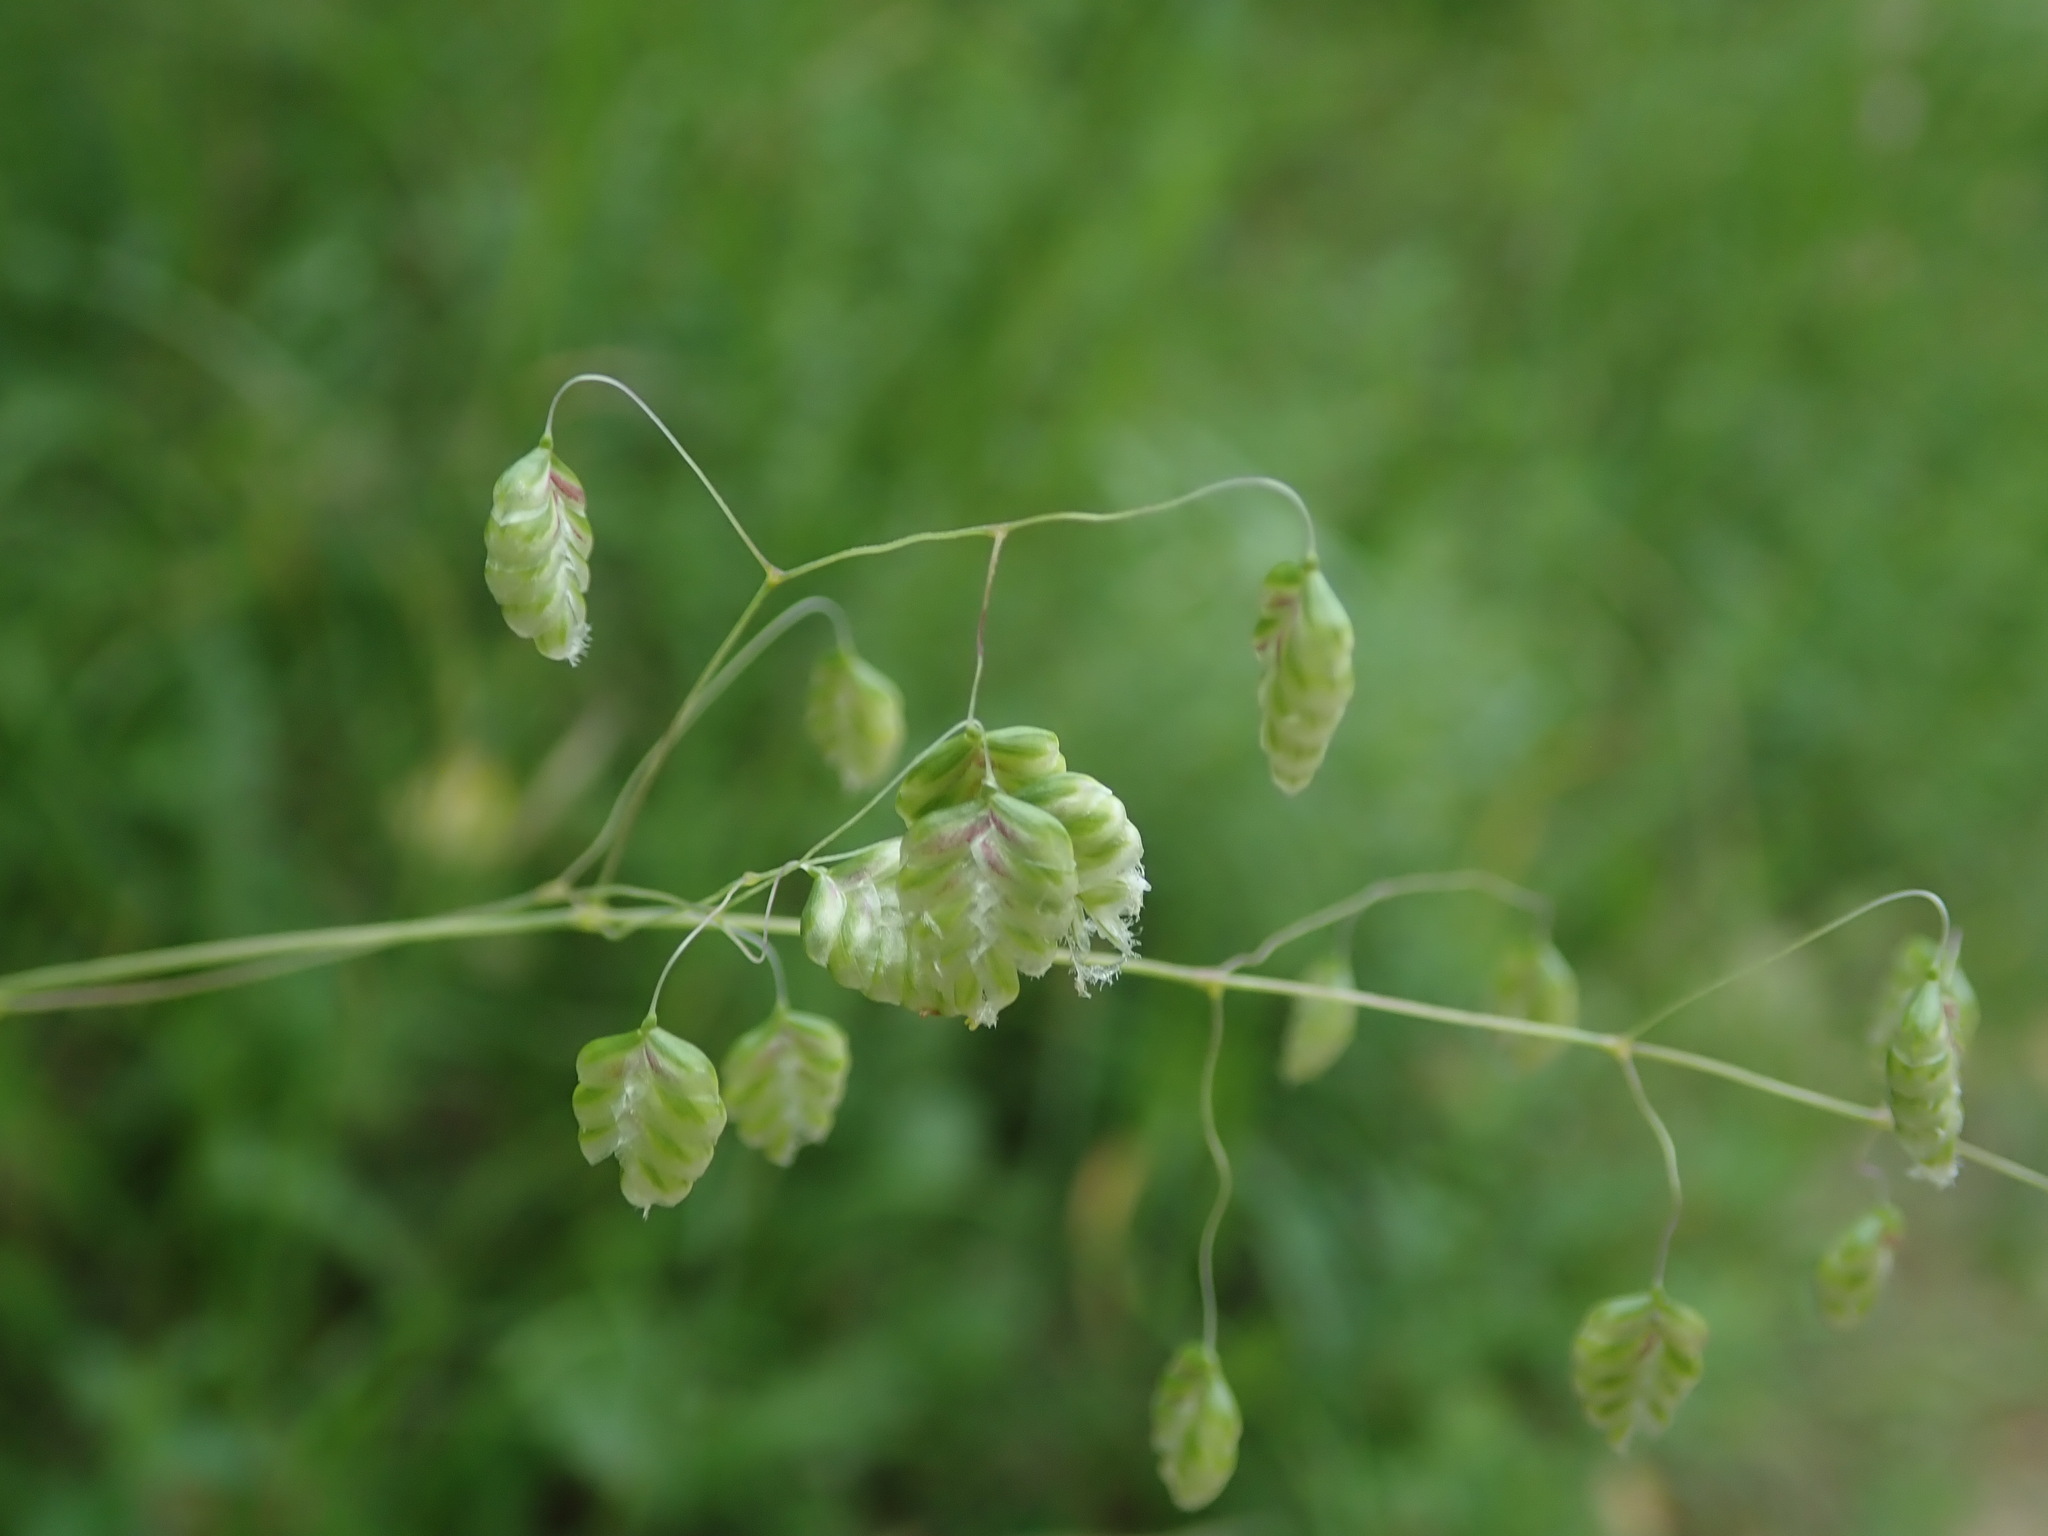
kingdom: Plantae
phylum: Tracheophyta
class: Liliopsida
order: Poales
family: Poaceae
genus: Briza
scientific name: Briza media
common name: Quaking grass
